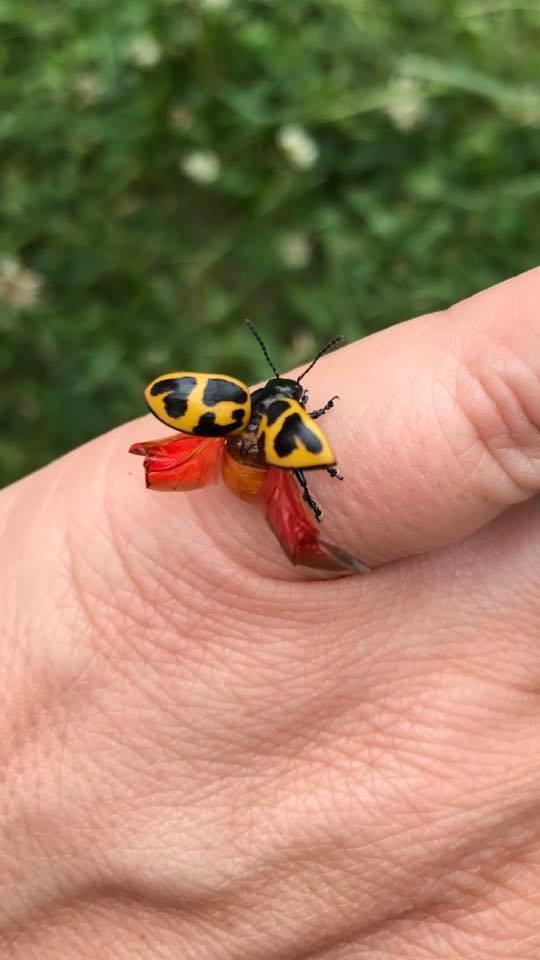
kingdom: Animalia
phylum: Arthropoda
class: Insecta
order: Coleoptera
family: Chrysomelidae
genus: Labidomera
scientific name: Labidomera clivicollis
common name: Swamp milkweed leaf beetle
